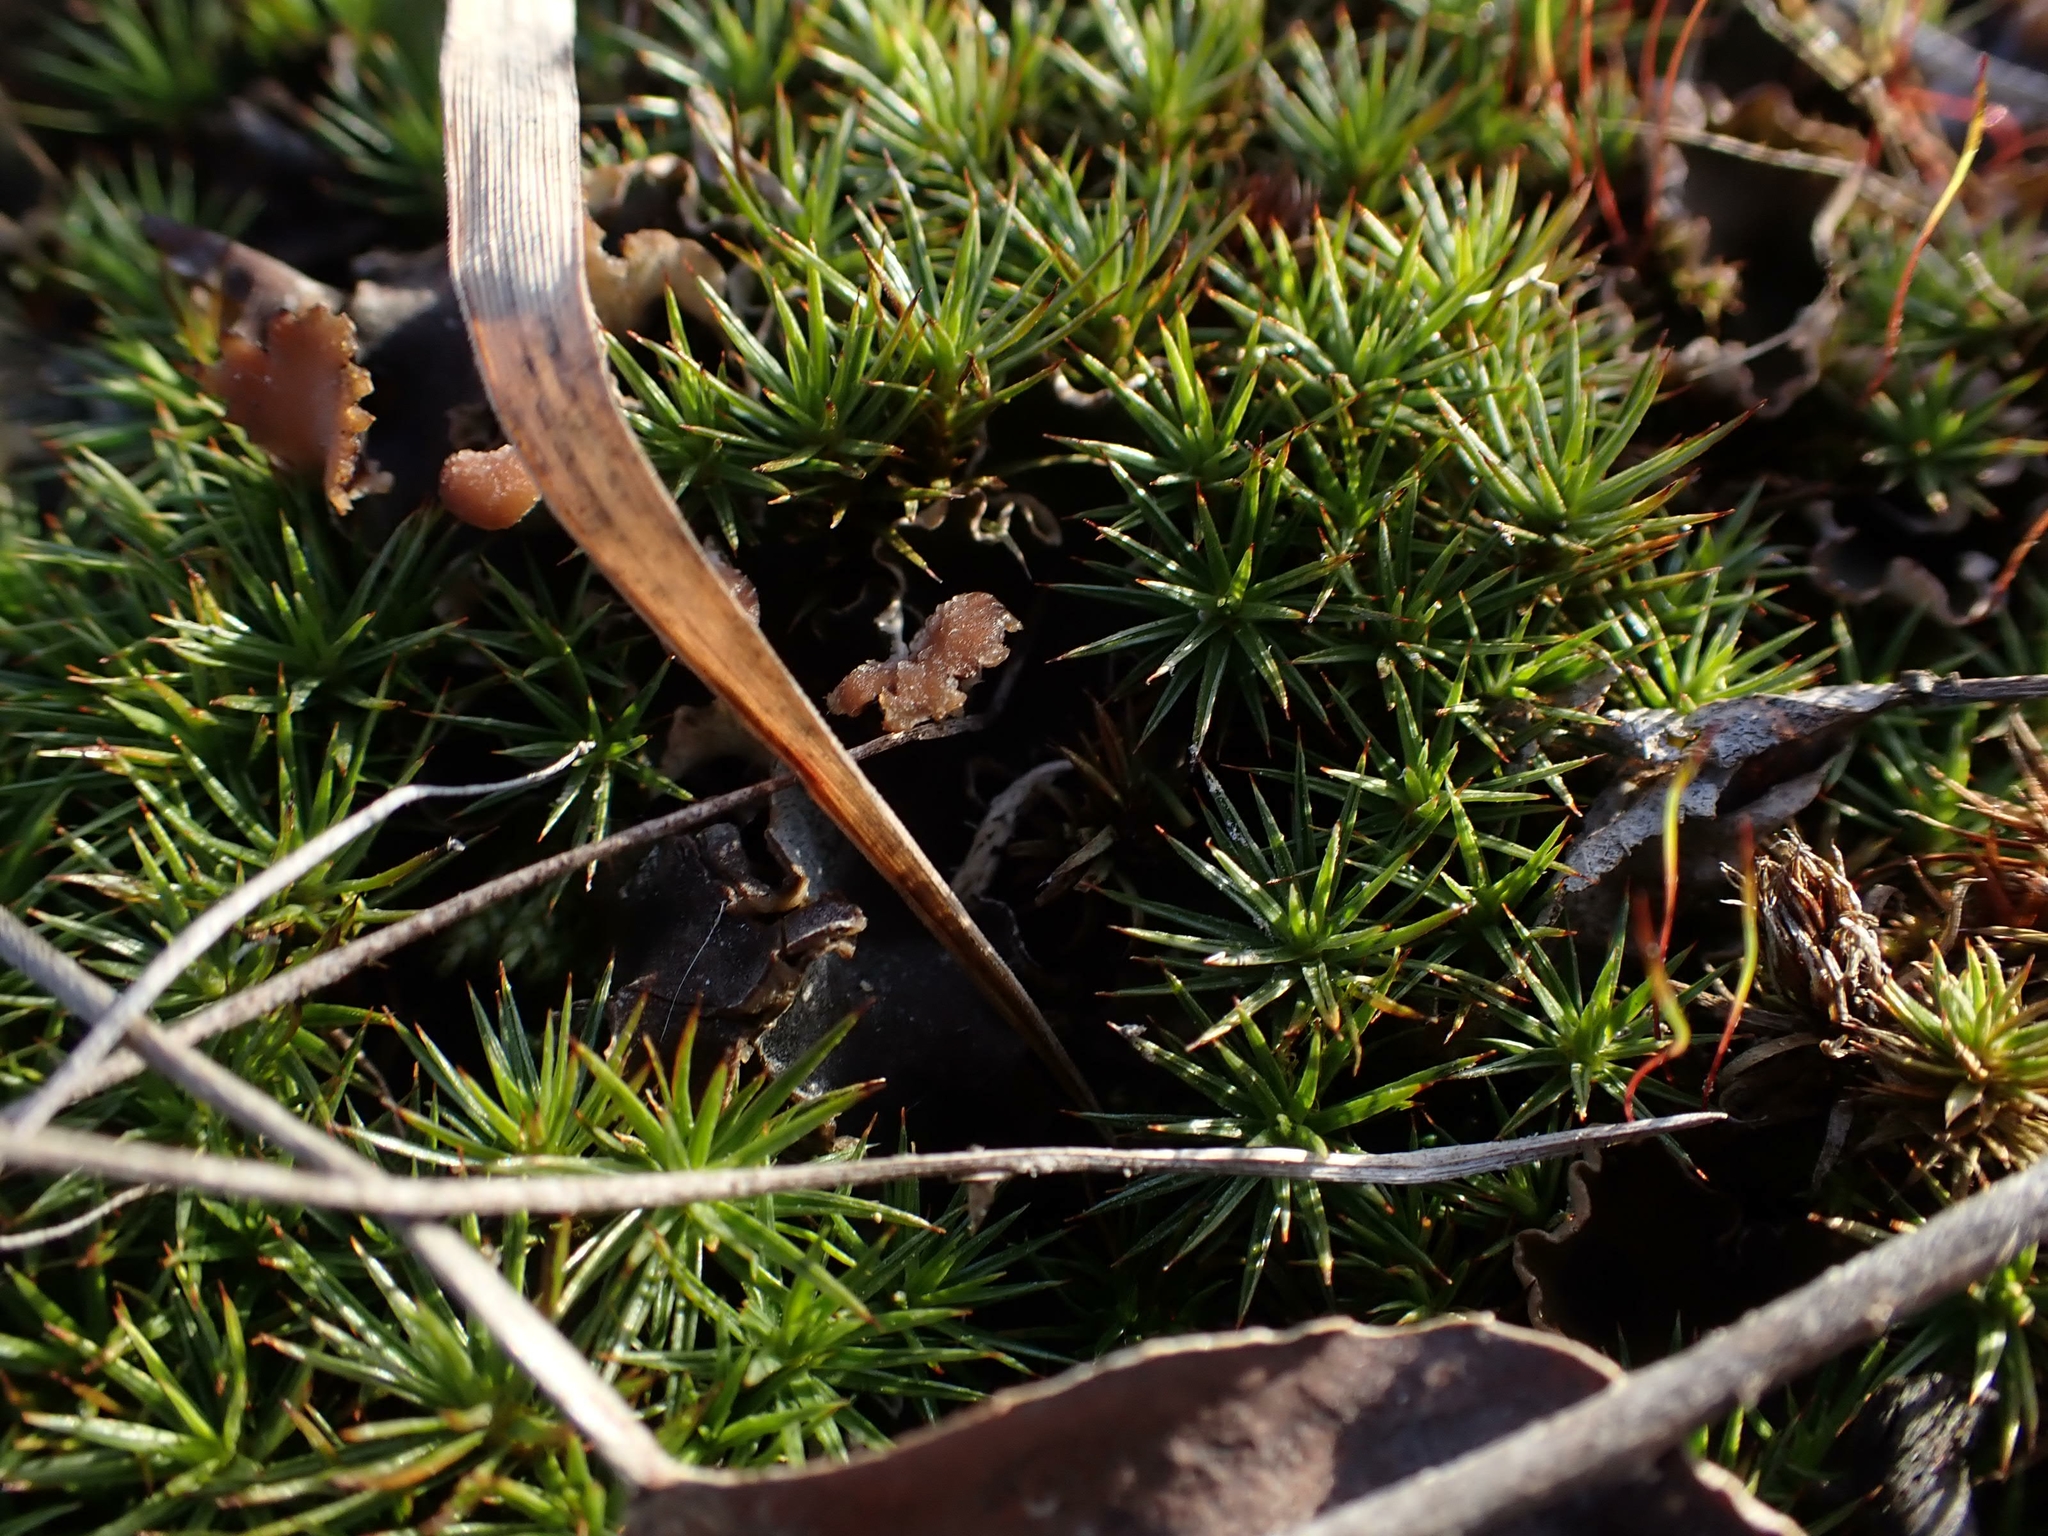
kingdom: Plantae
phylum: Bryophyta
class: Polytrichopsida
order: Polytrichales
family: Polytrichaceae
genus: Polytrichum
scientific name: Polytrichum juniperinum
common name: Juniper haircap moss
